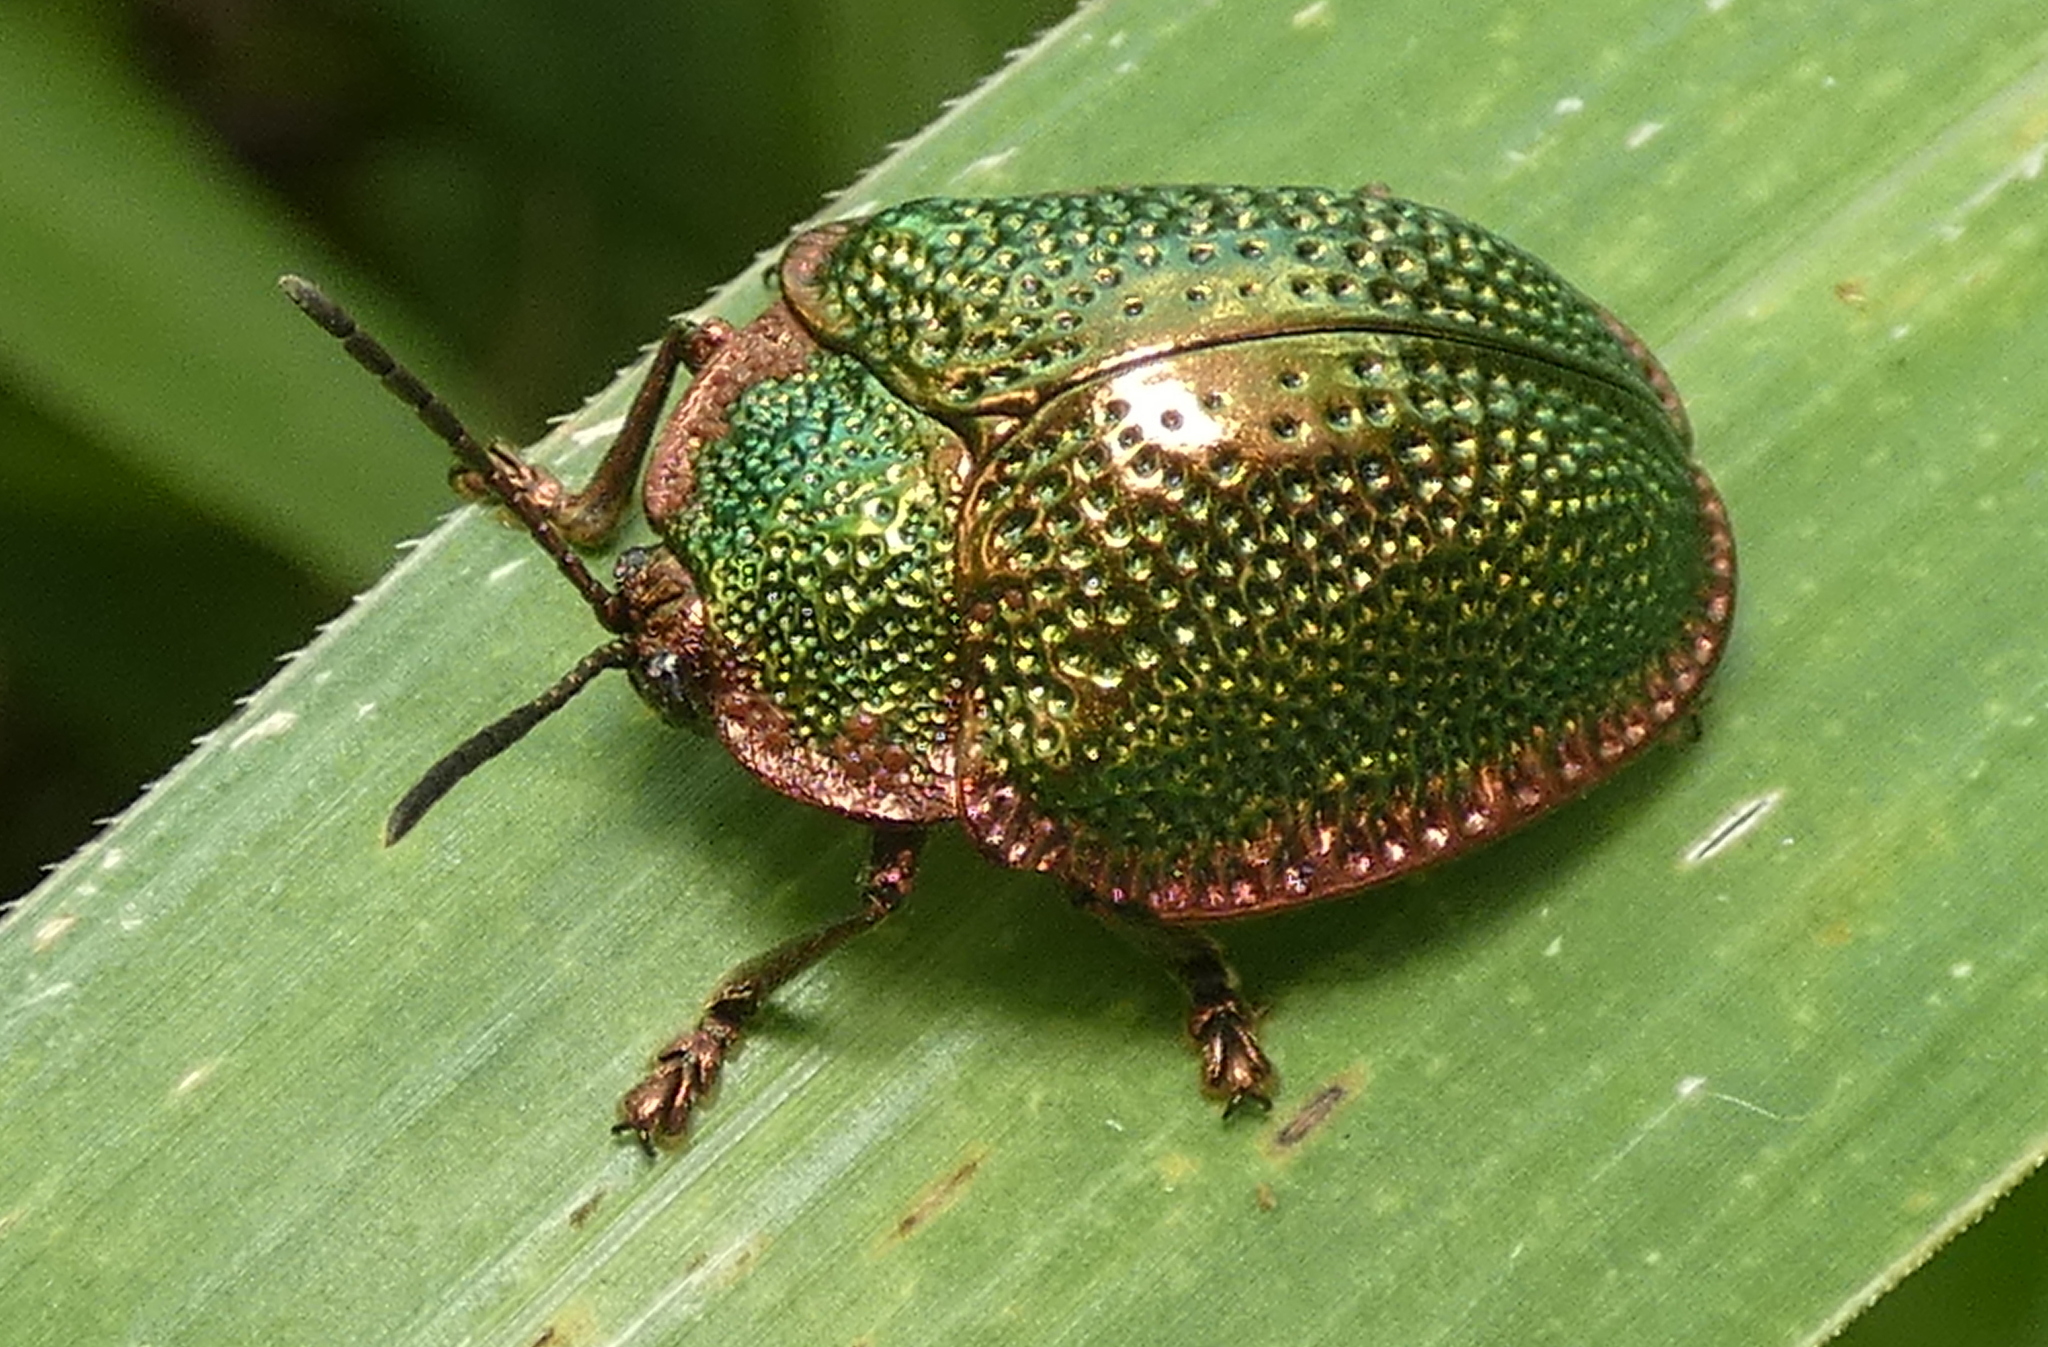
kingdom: Animalia
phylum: Arthropoda
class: Insecta
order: Coleoptera
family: Chrysomelidae
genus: Polychalca
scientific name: Polychalca punctatissima
